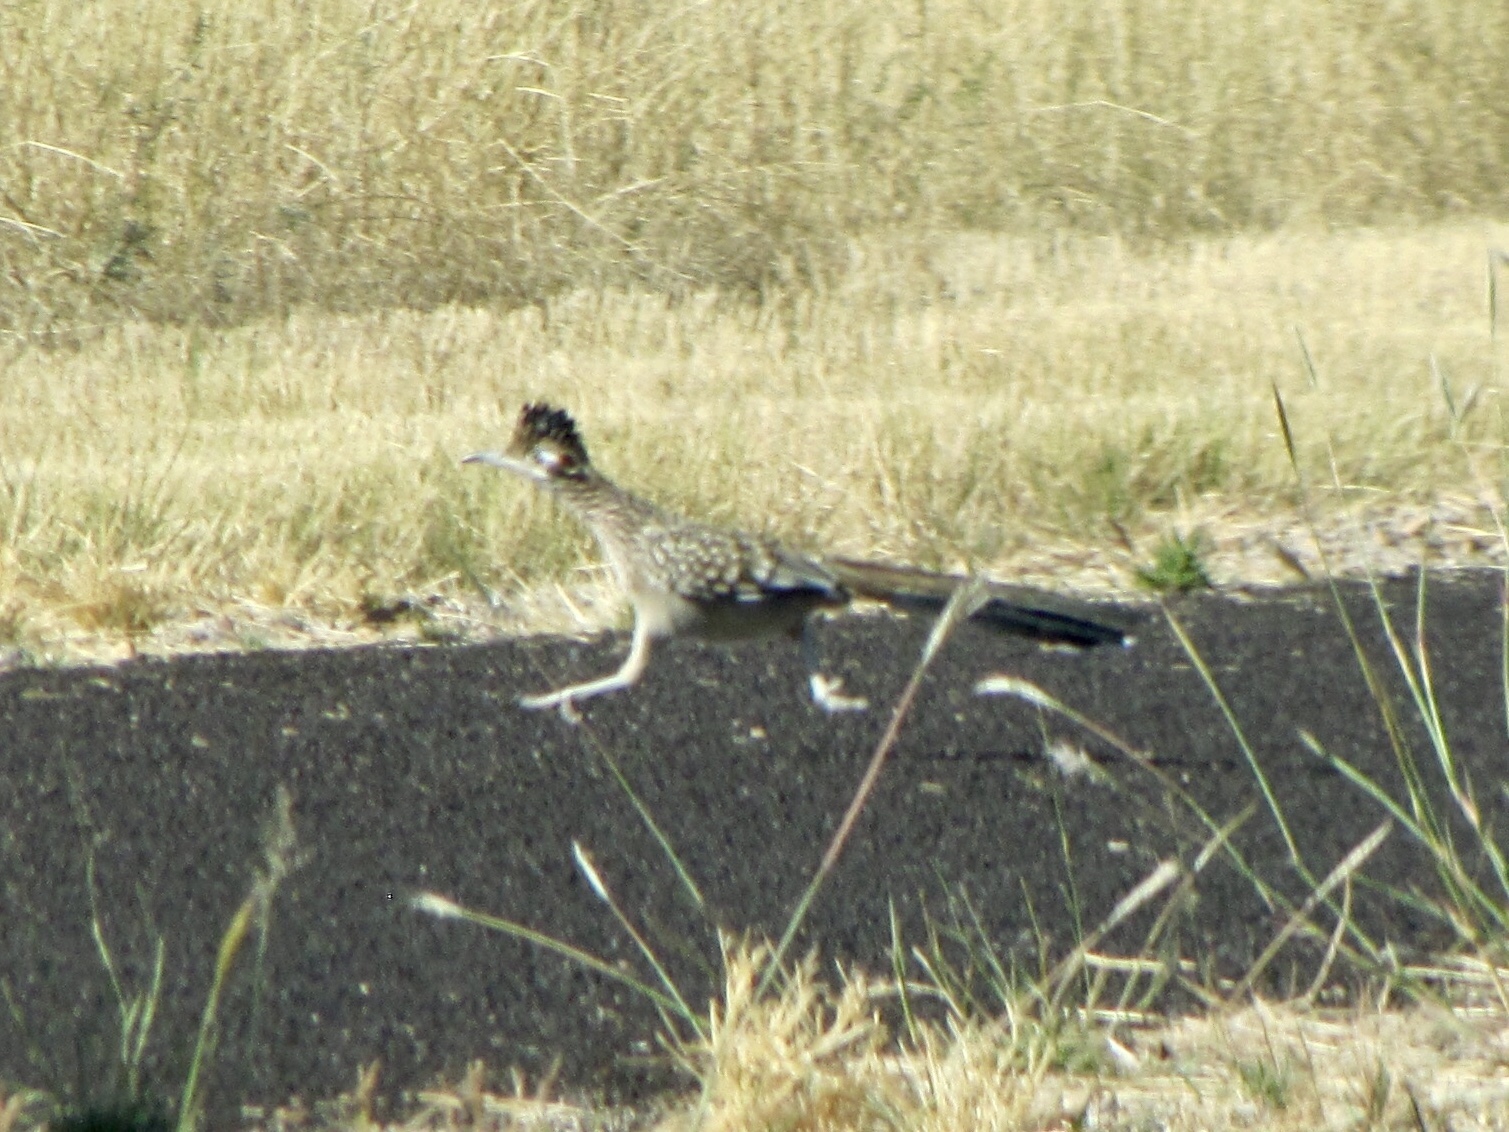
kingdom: Animalia
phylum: Chordata
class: Aves
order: Cuculiformes
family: Cuculidae
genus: Geococcyx
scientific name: Geococcyx californianus
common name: Greater roadrunner
